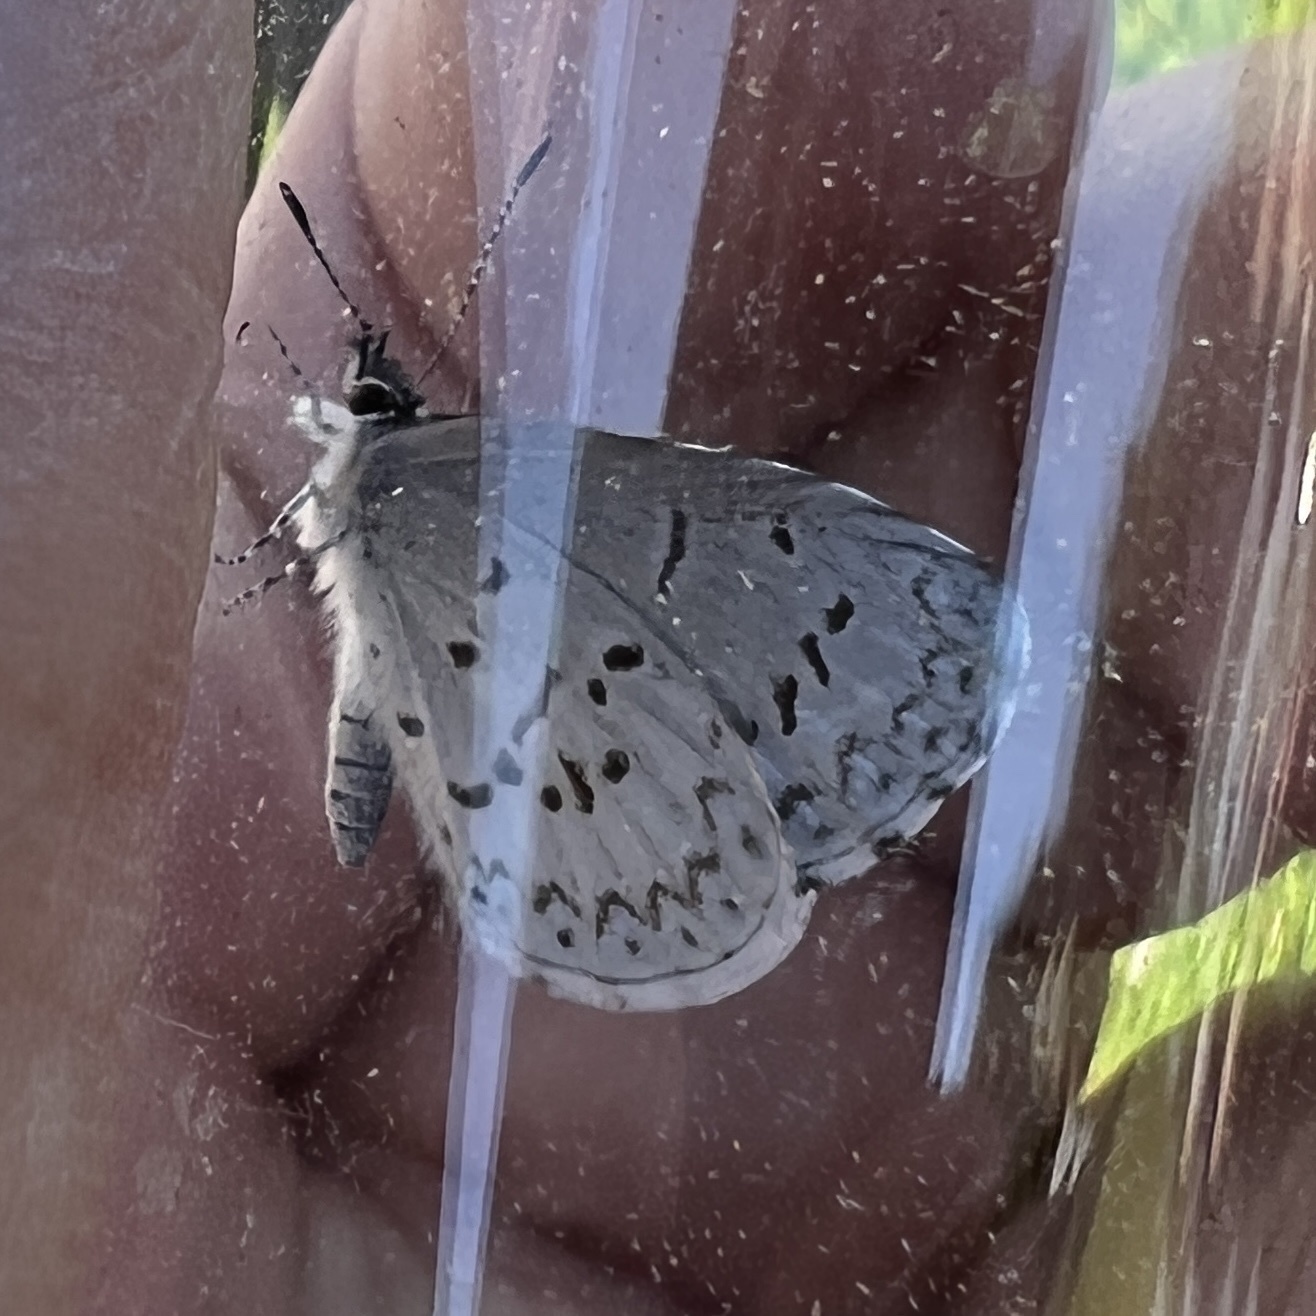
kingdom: Animalia
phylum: Arthropoda
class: Insecta
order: Lepidoptera
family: Lycaenidae
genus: Cyaniris
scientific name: Cyaniris neglecta
